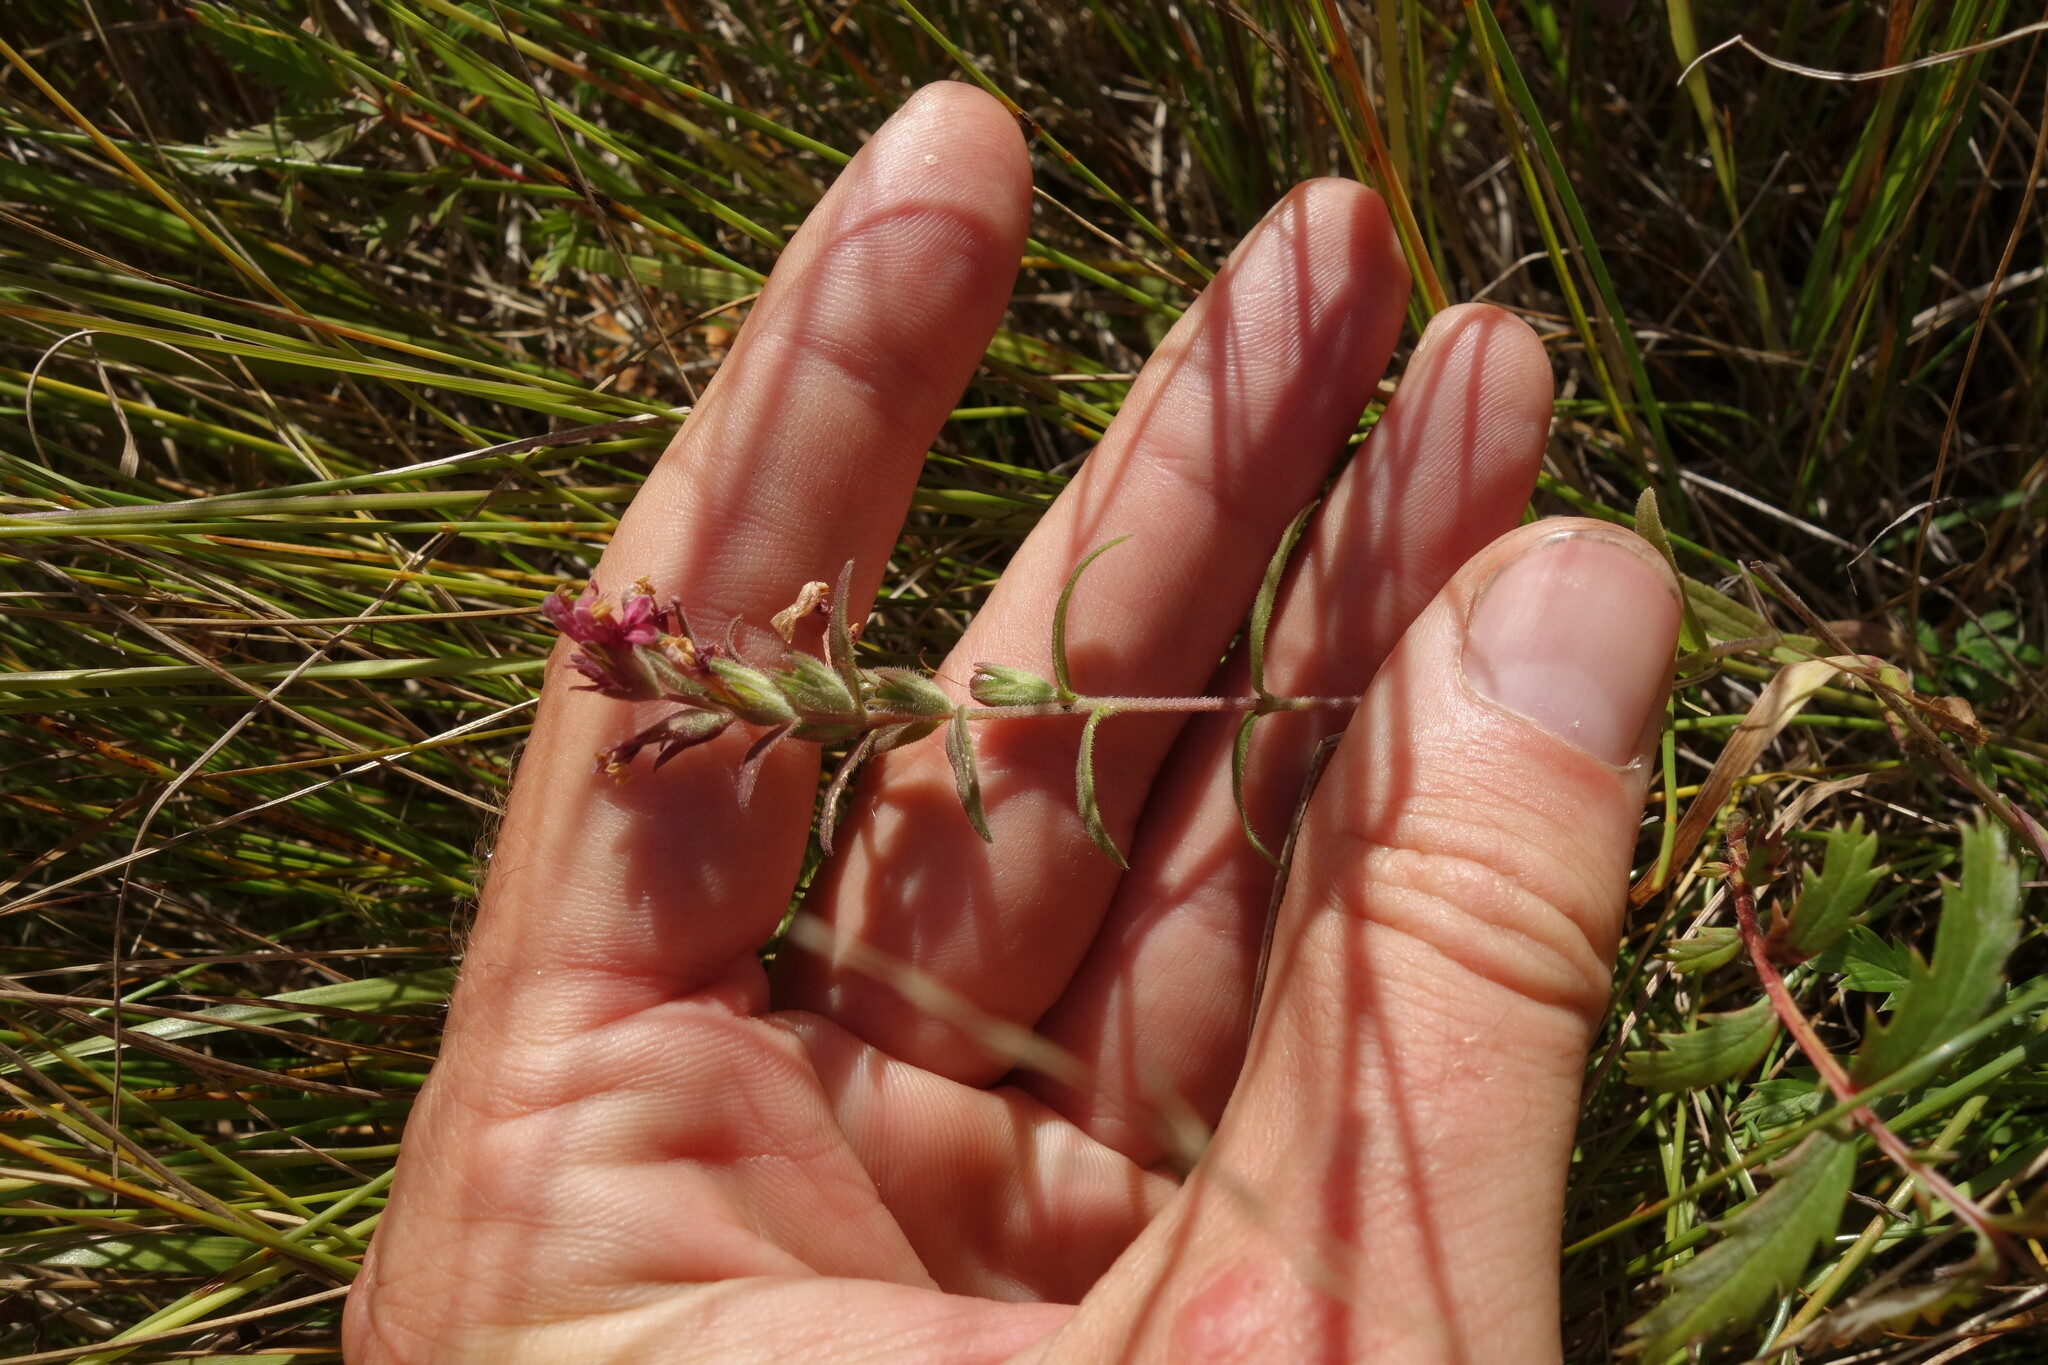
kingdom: Plantae
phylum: Tracheophyta
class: Magnoliopsida
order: Lamiales
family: Orobanchaceae
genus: Odontites
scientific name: Odontites vulgaris
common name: Broomrape
